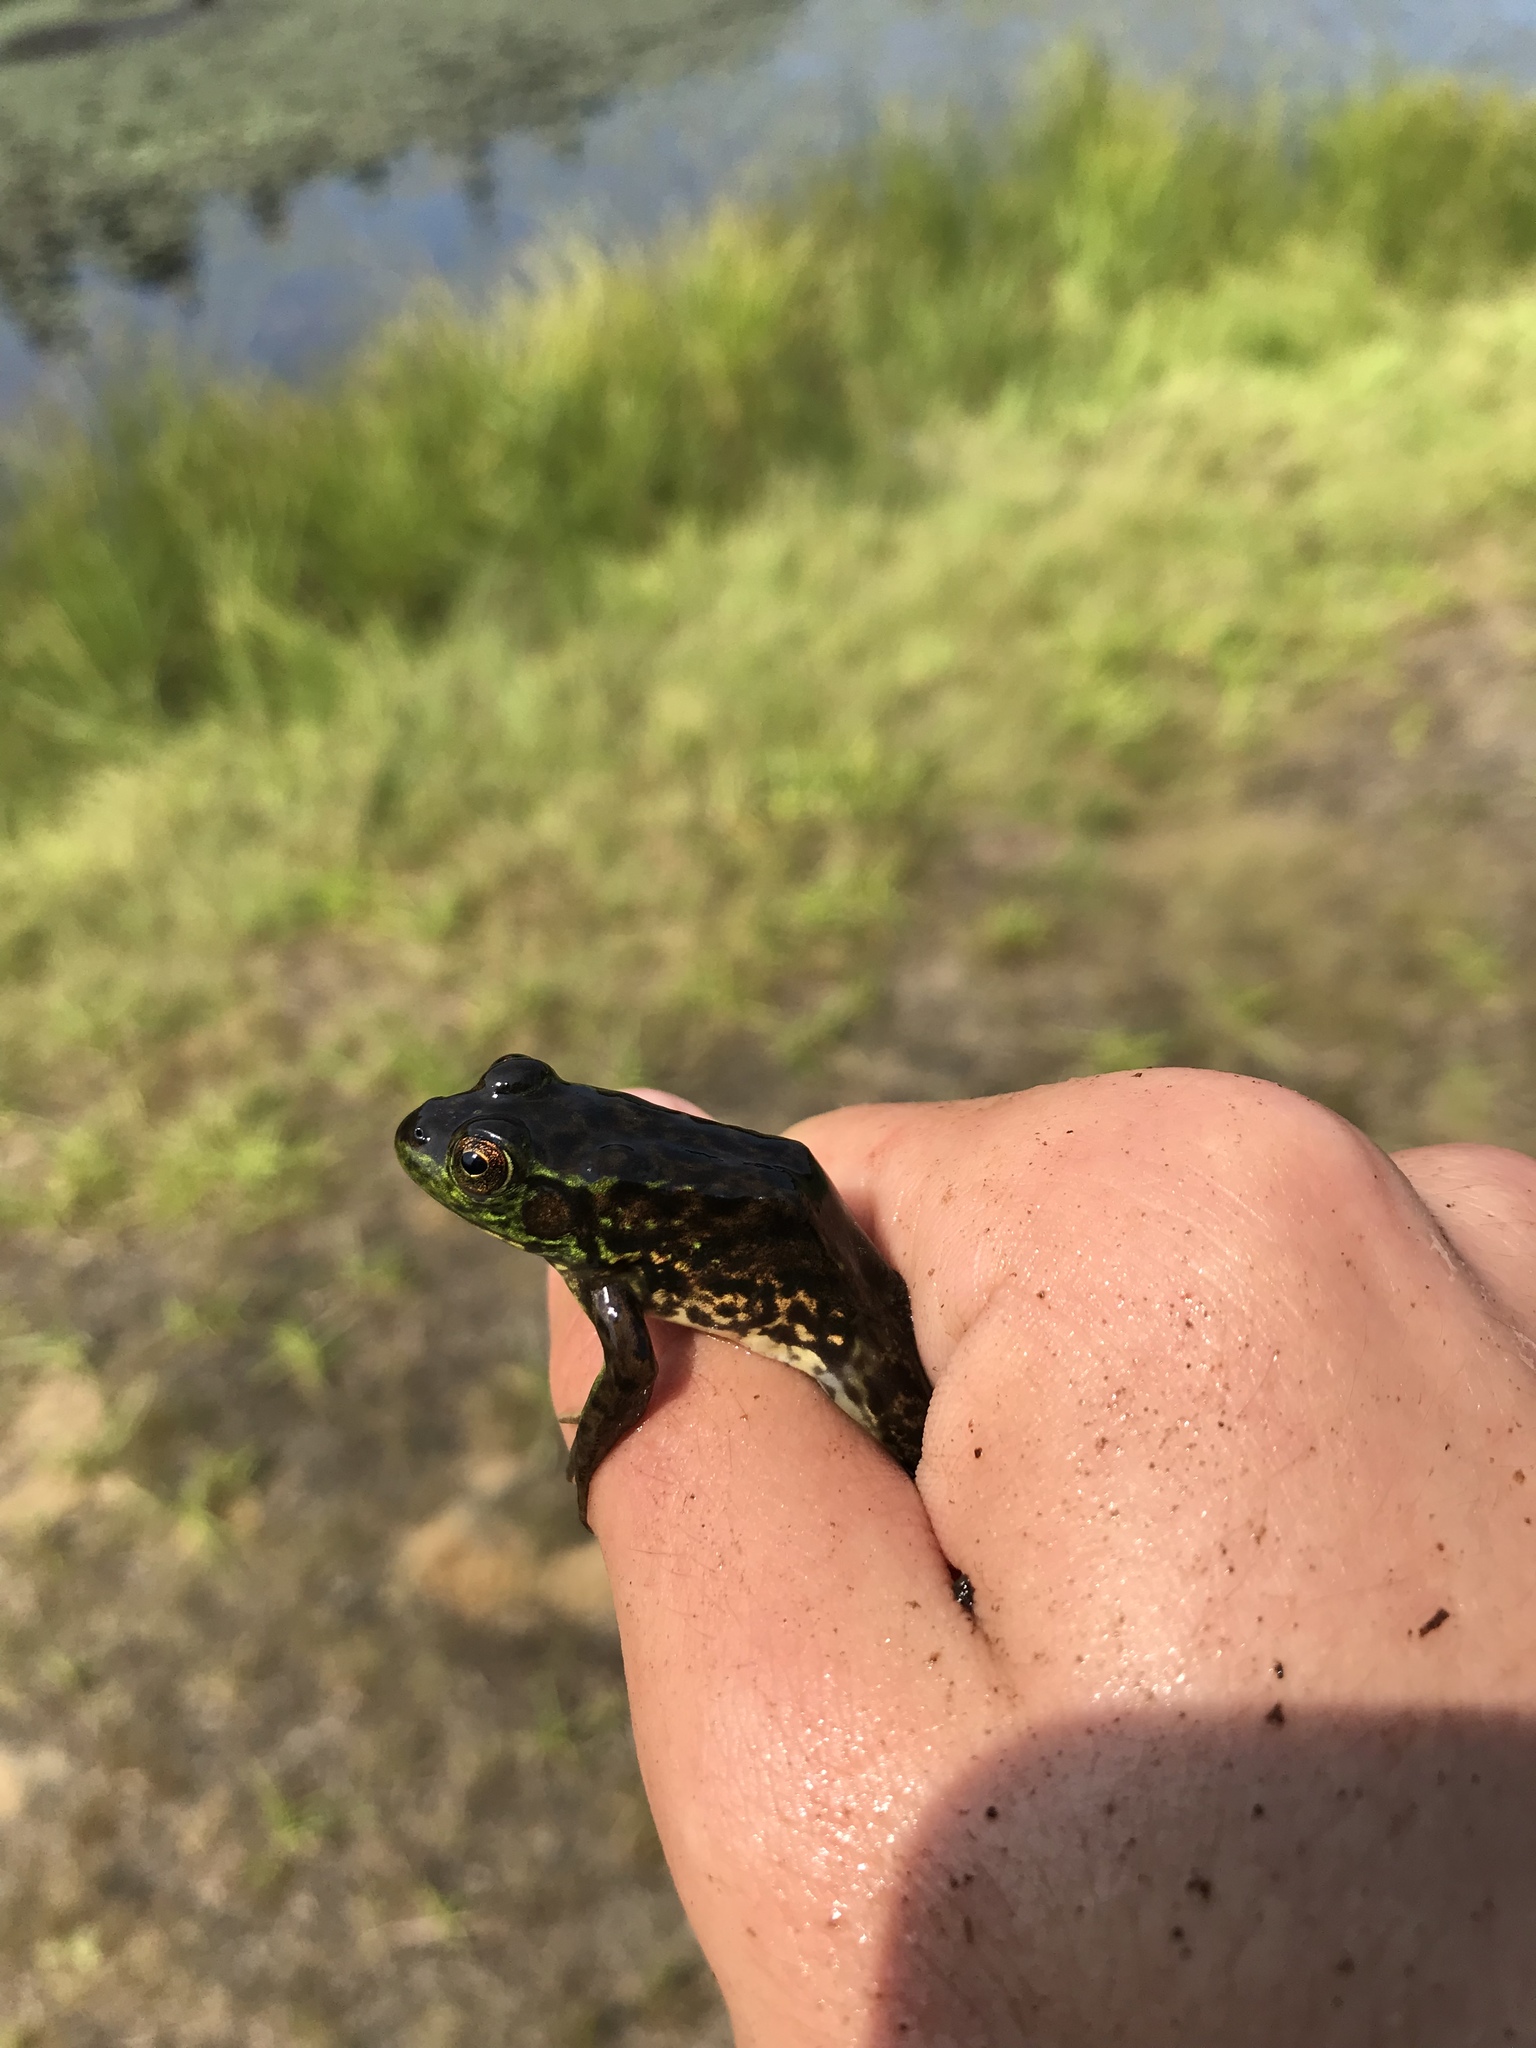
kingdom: Animalia
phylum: Chordata
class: Amphibia
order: Anura
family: Ranidae
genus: Lithobates
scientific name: Lithobates septentrionalis
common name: Mink frog
